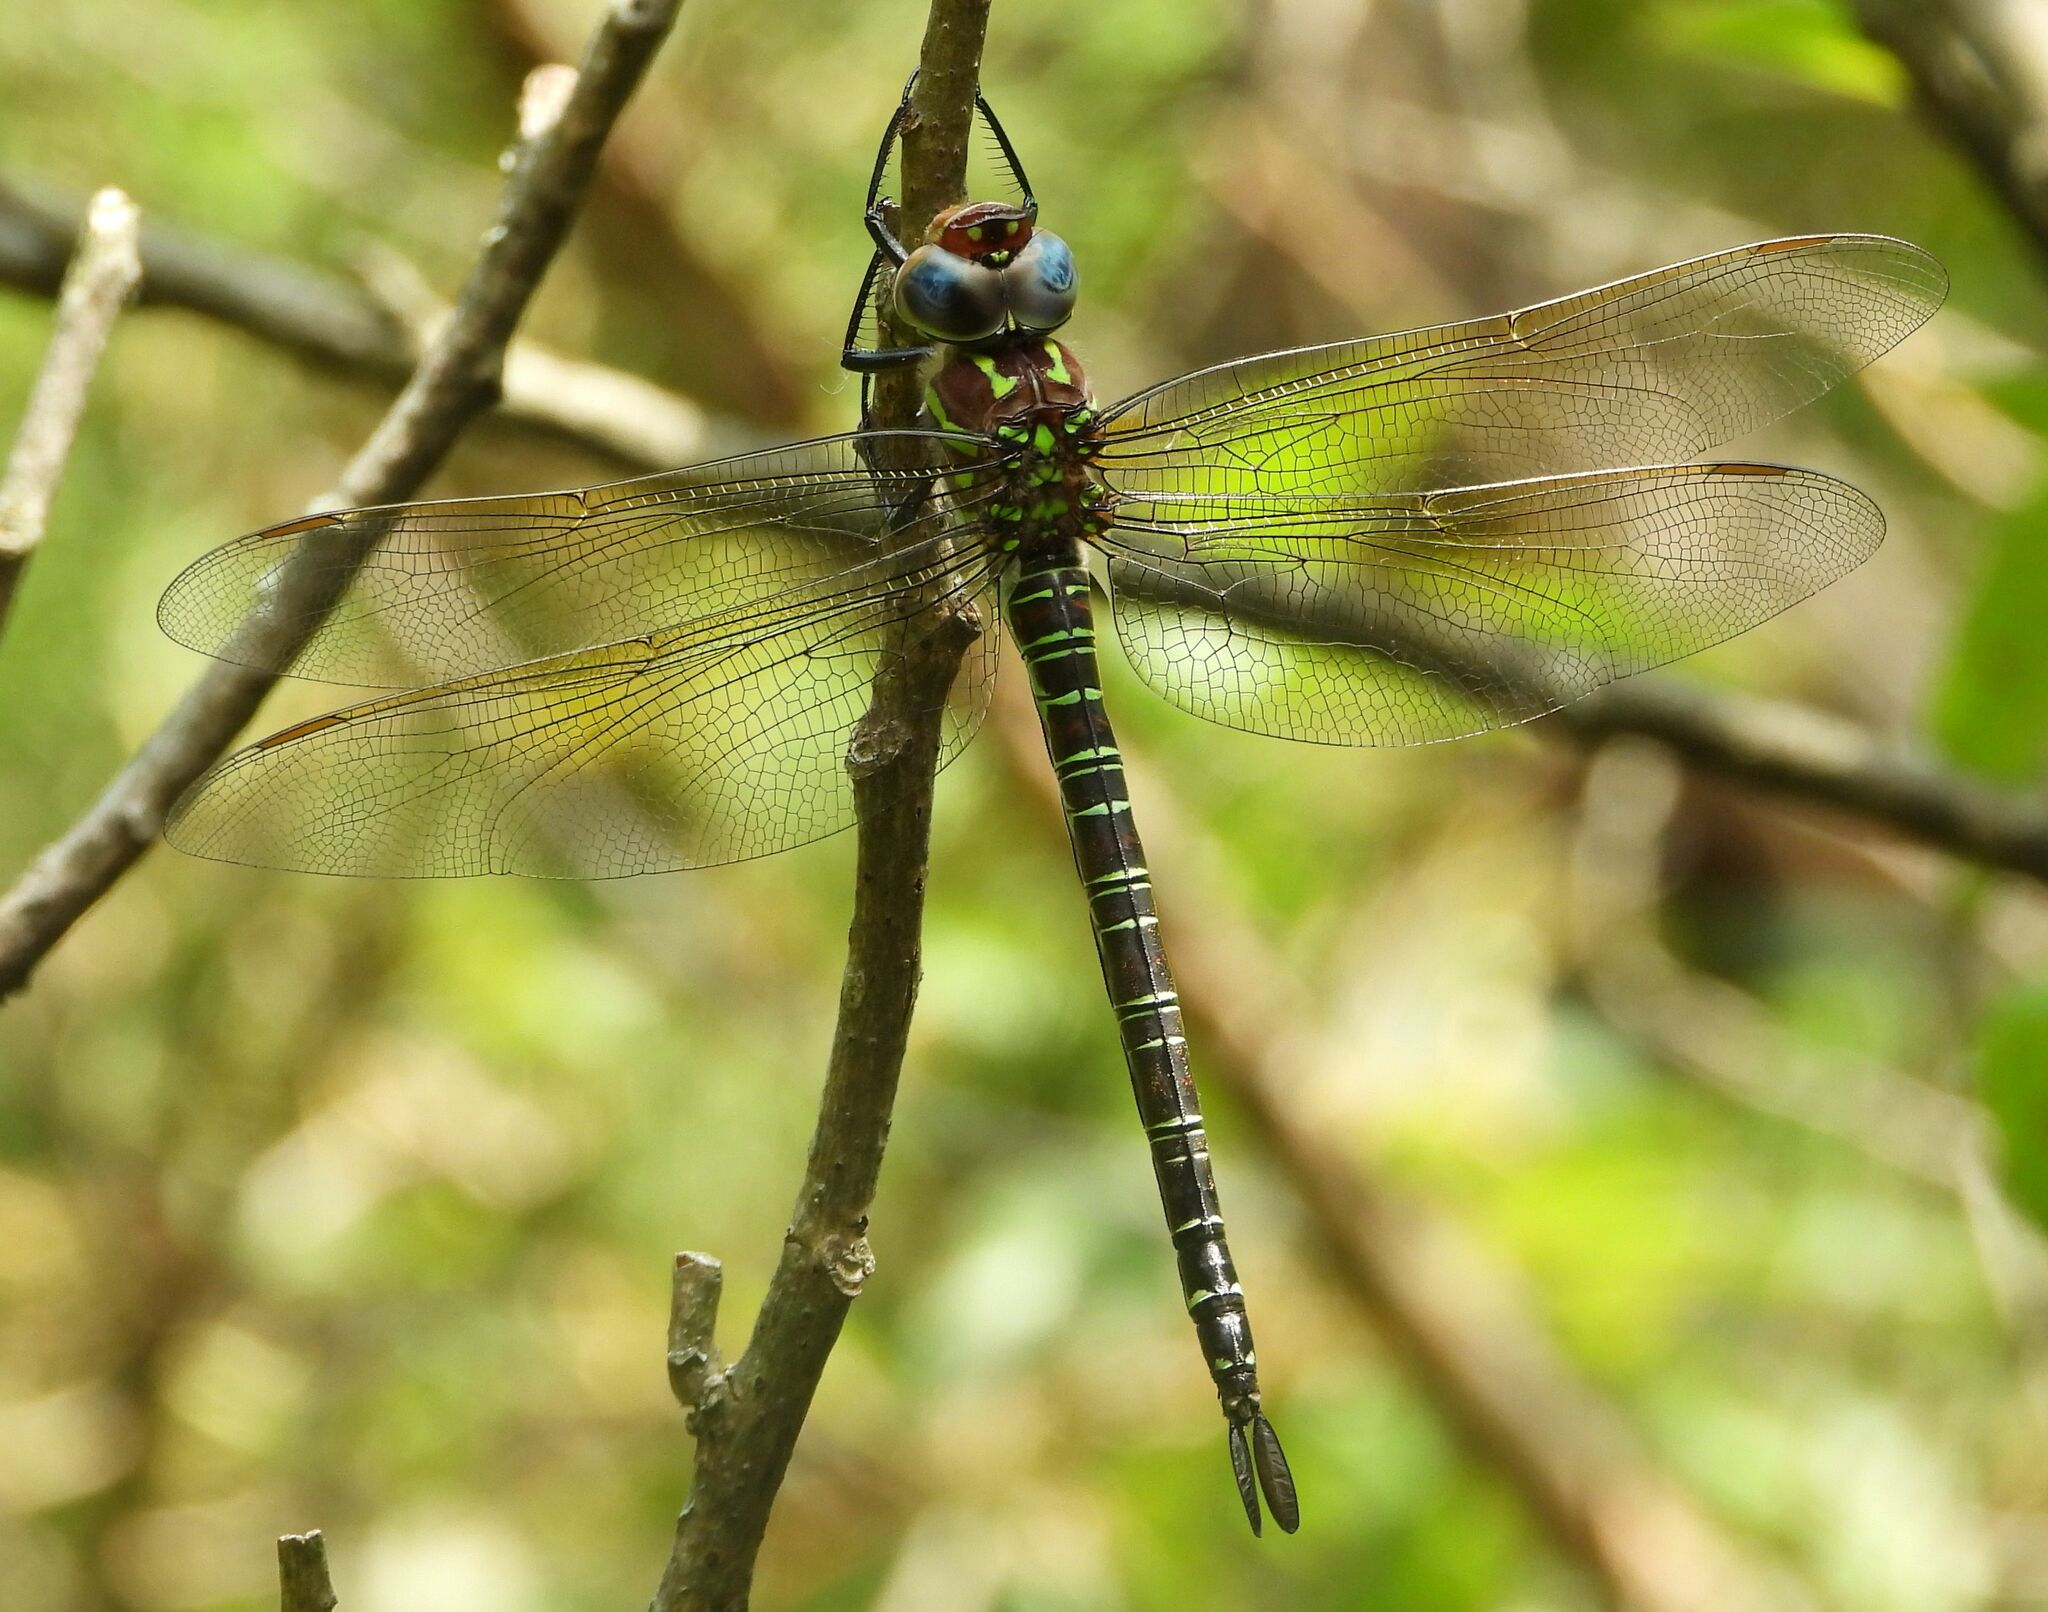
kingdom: Animalia
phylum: Arthropoda
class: Insecta
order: Odonata
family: Aeshnidae
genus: Epiaeschna
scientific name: Epiaeschna heros
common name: Swamp darner
